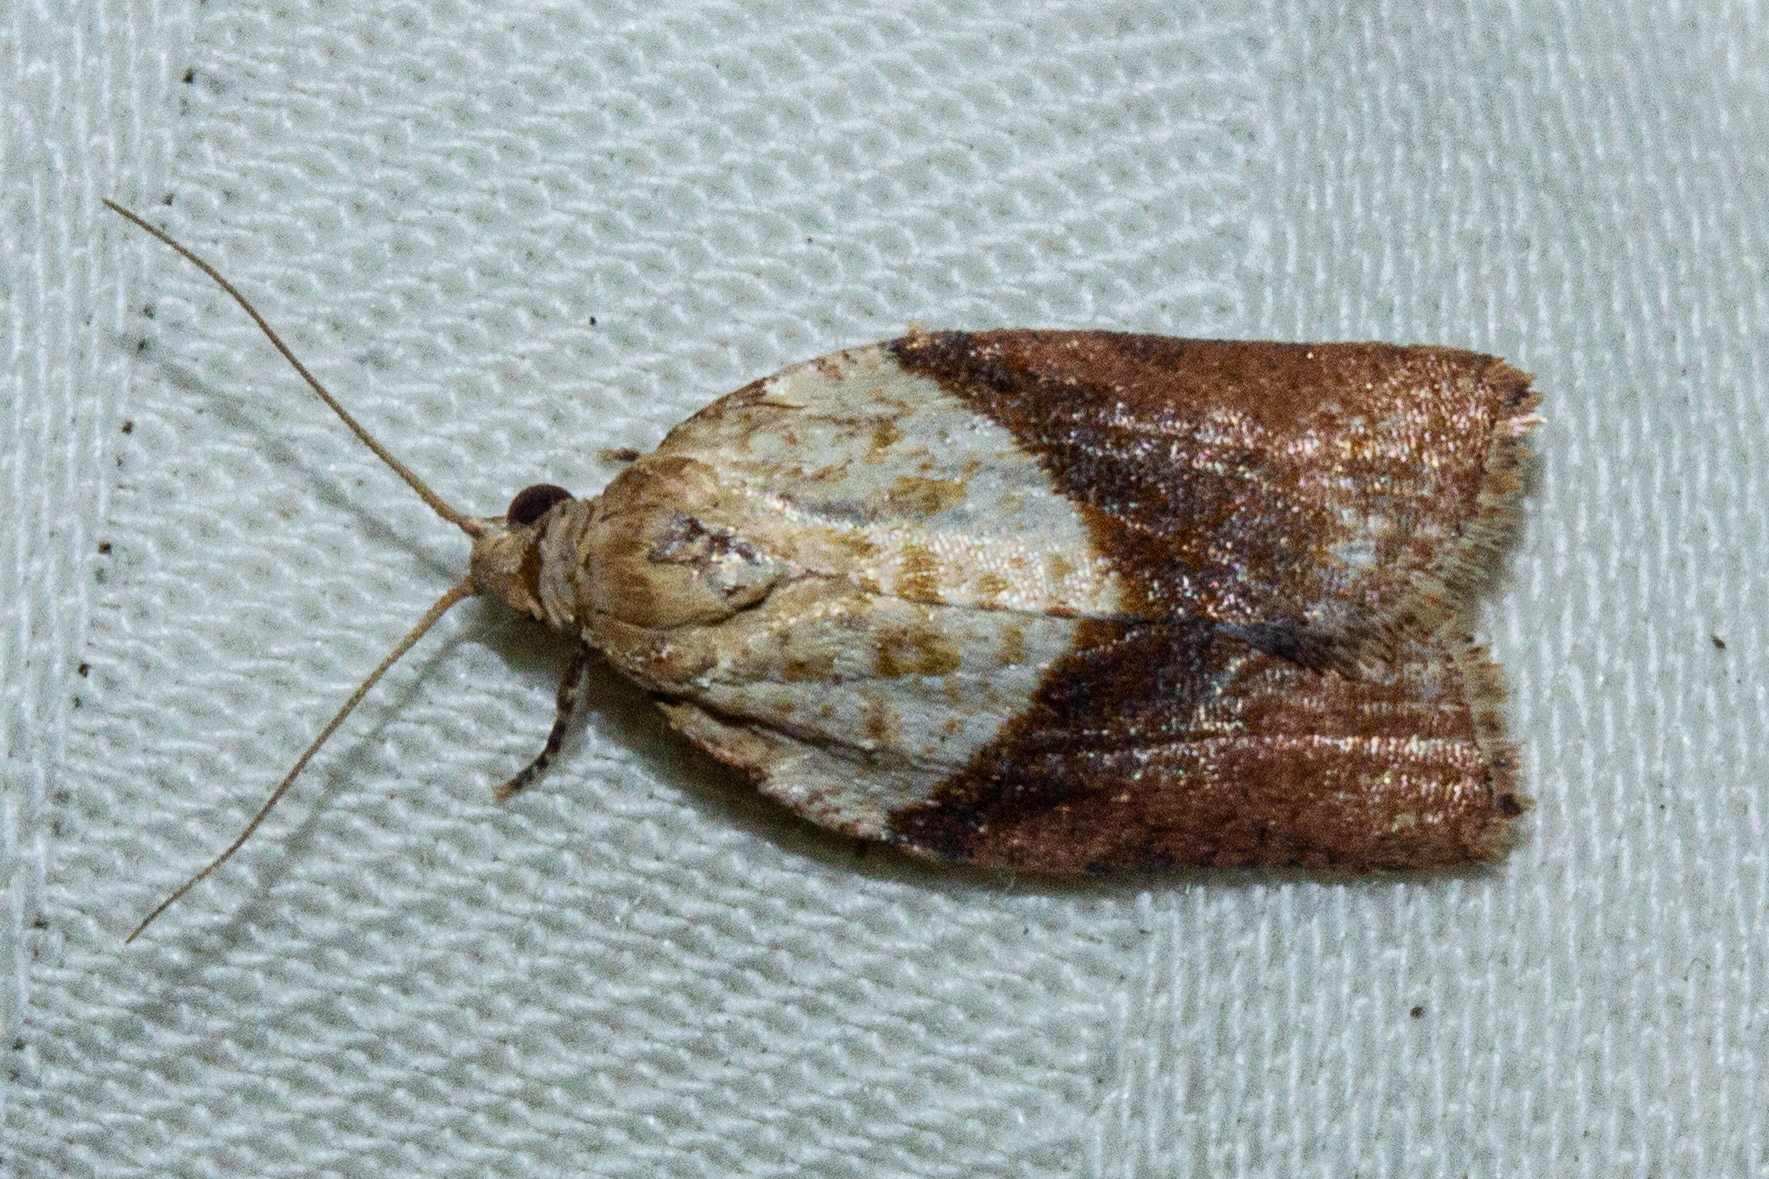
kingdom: Animalia
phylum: Arthropoda
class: Insecta
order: Lepidoptera
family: Tortricidae
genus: Epiphyas
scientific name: Epiphyas postvittana
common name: Light brown apple moth
